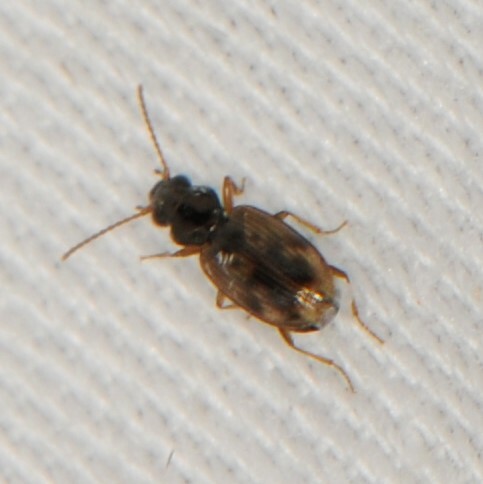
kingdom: Animalia
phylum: Arthropoda
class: Insecta
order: Coleoptera
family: Carabidae
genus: Bembidion
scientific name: Bembidion
